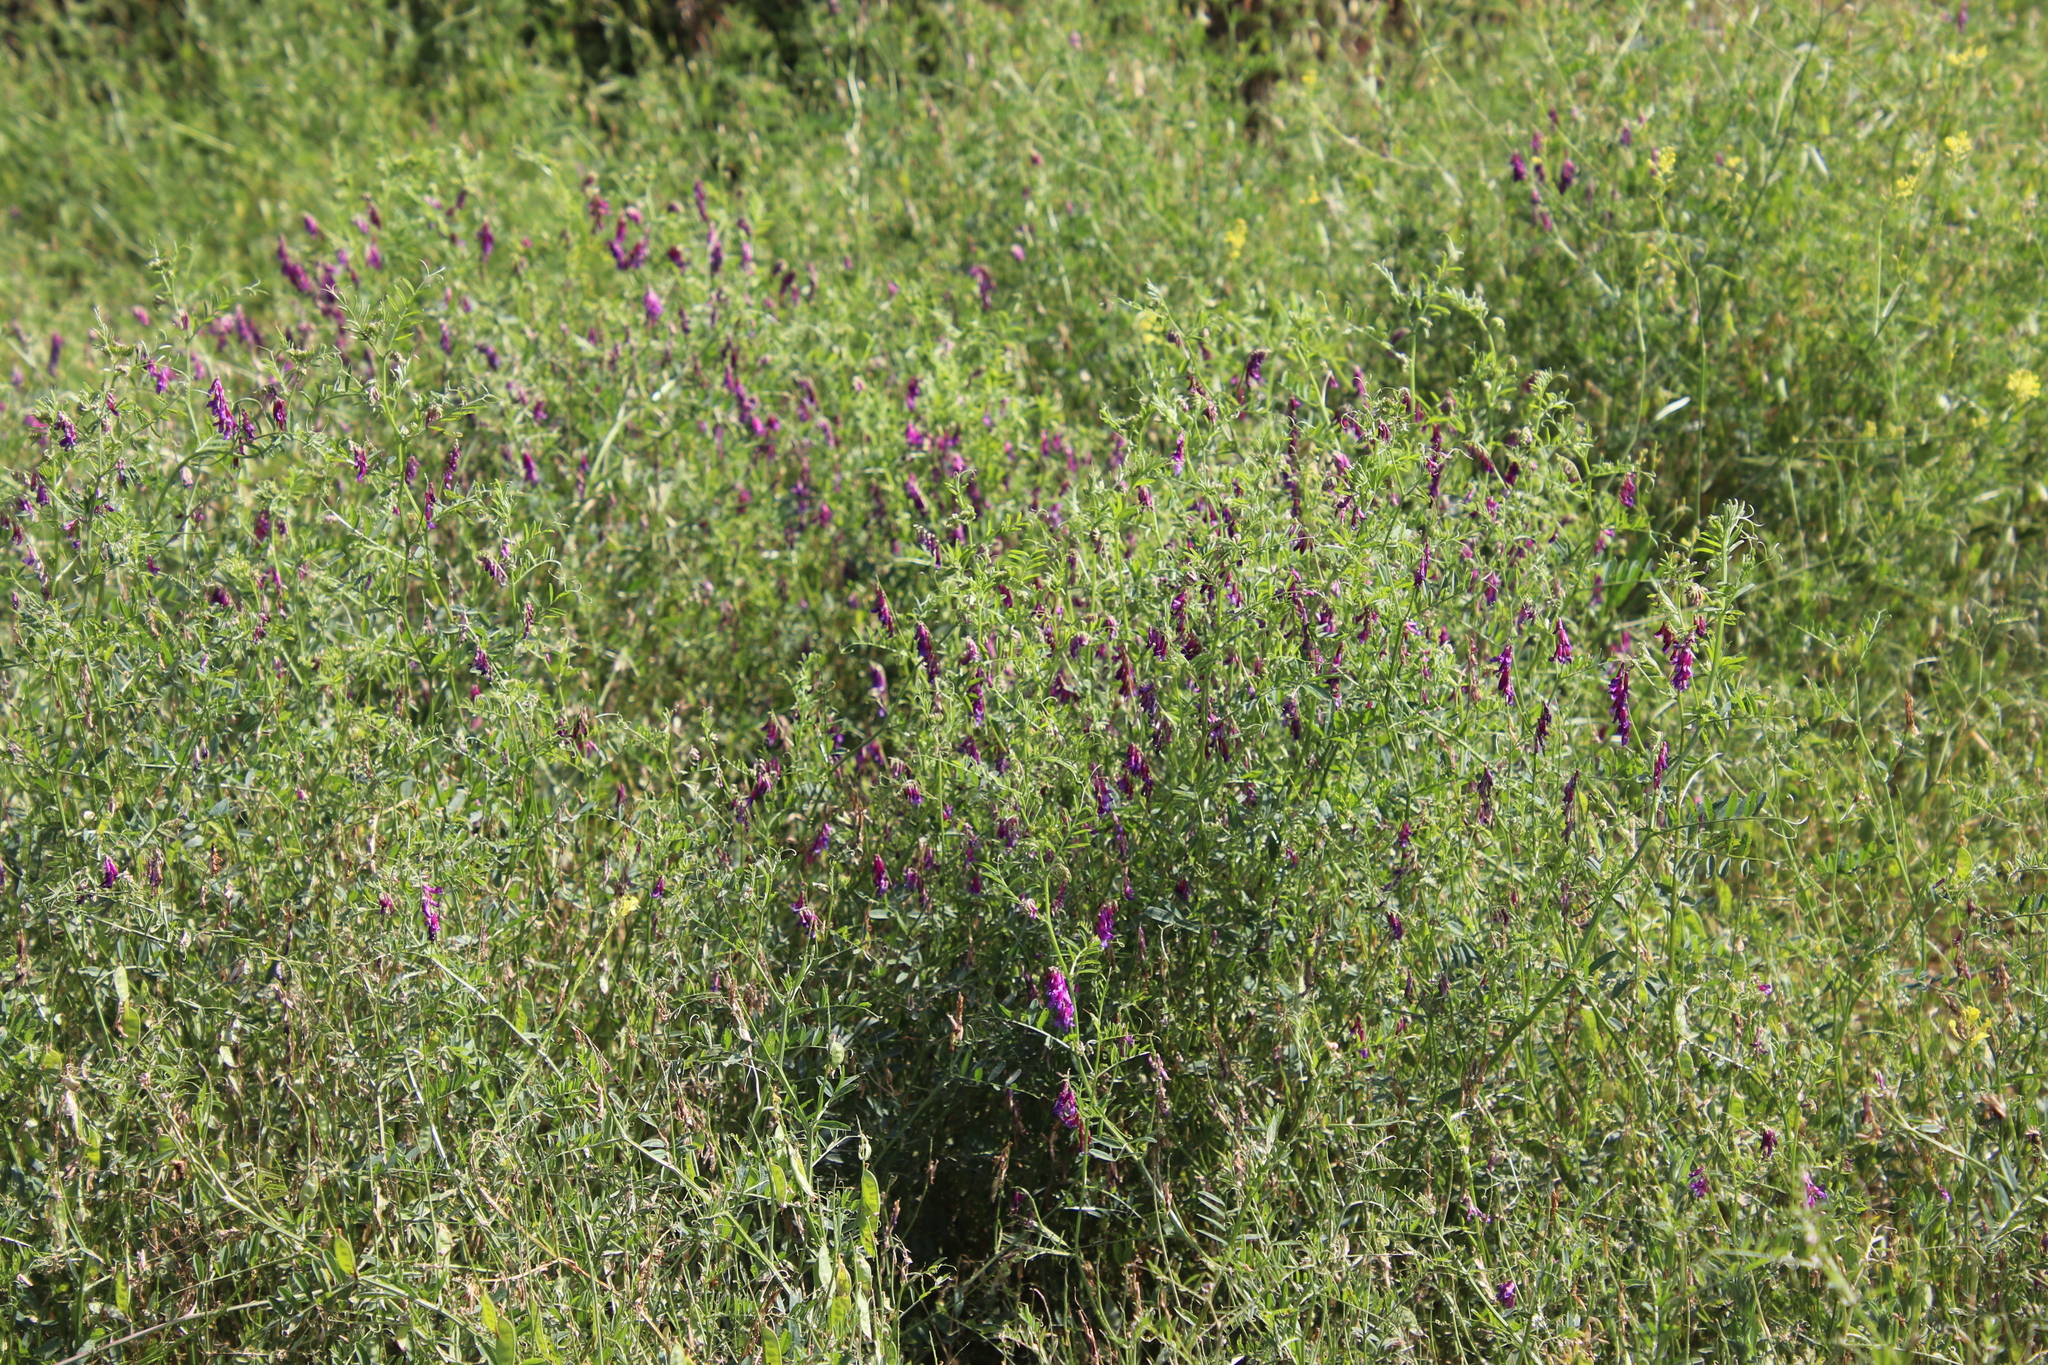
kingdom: Plantae
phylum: Tracheophyta
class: Magnoliopsida
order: Fabales
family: Fabaceae
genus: Vicia
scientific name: Vicia villosa
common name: Fodder vetch
